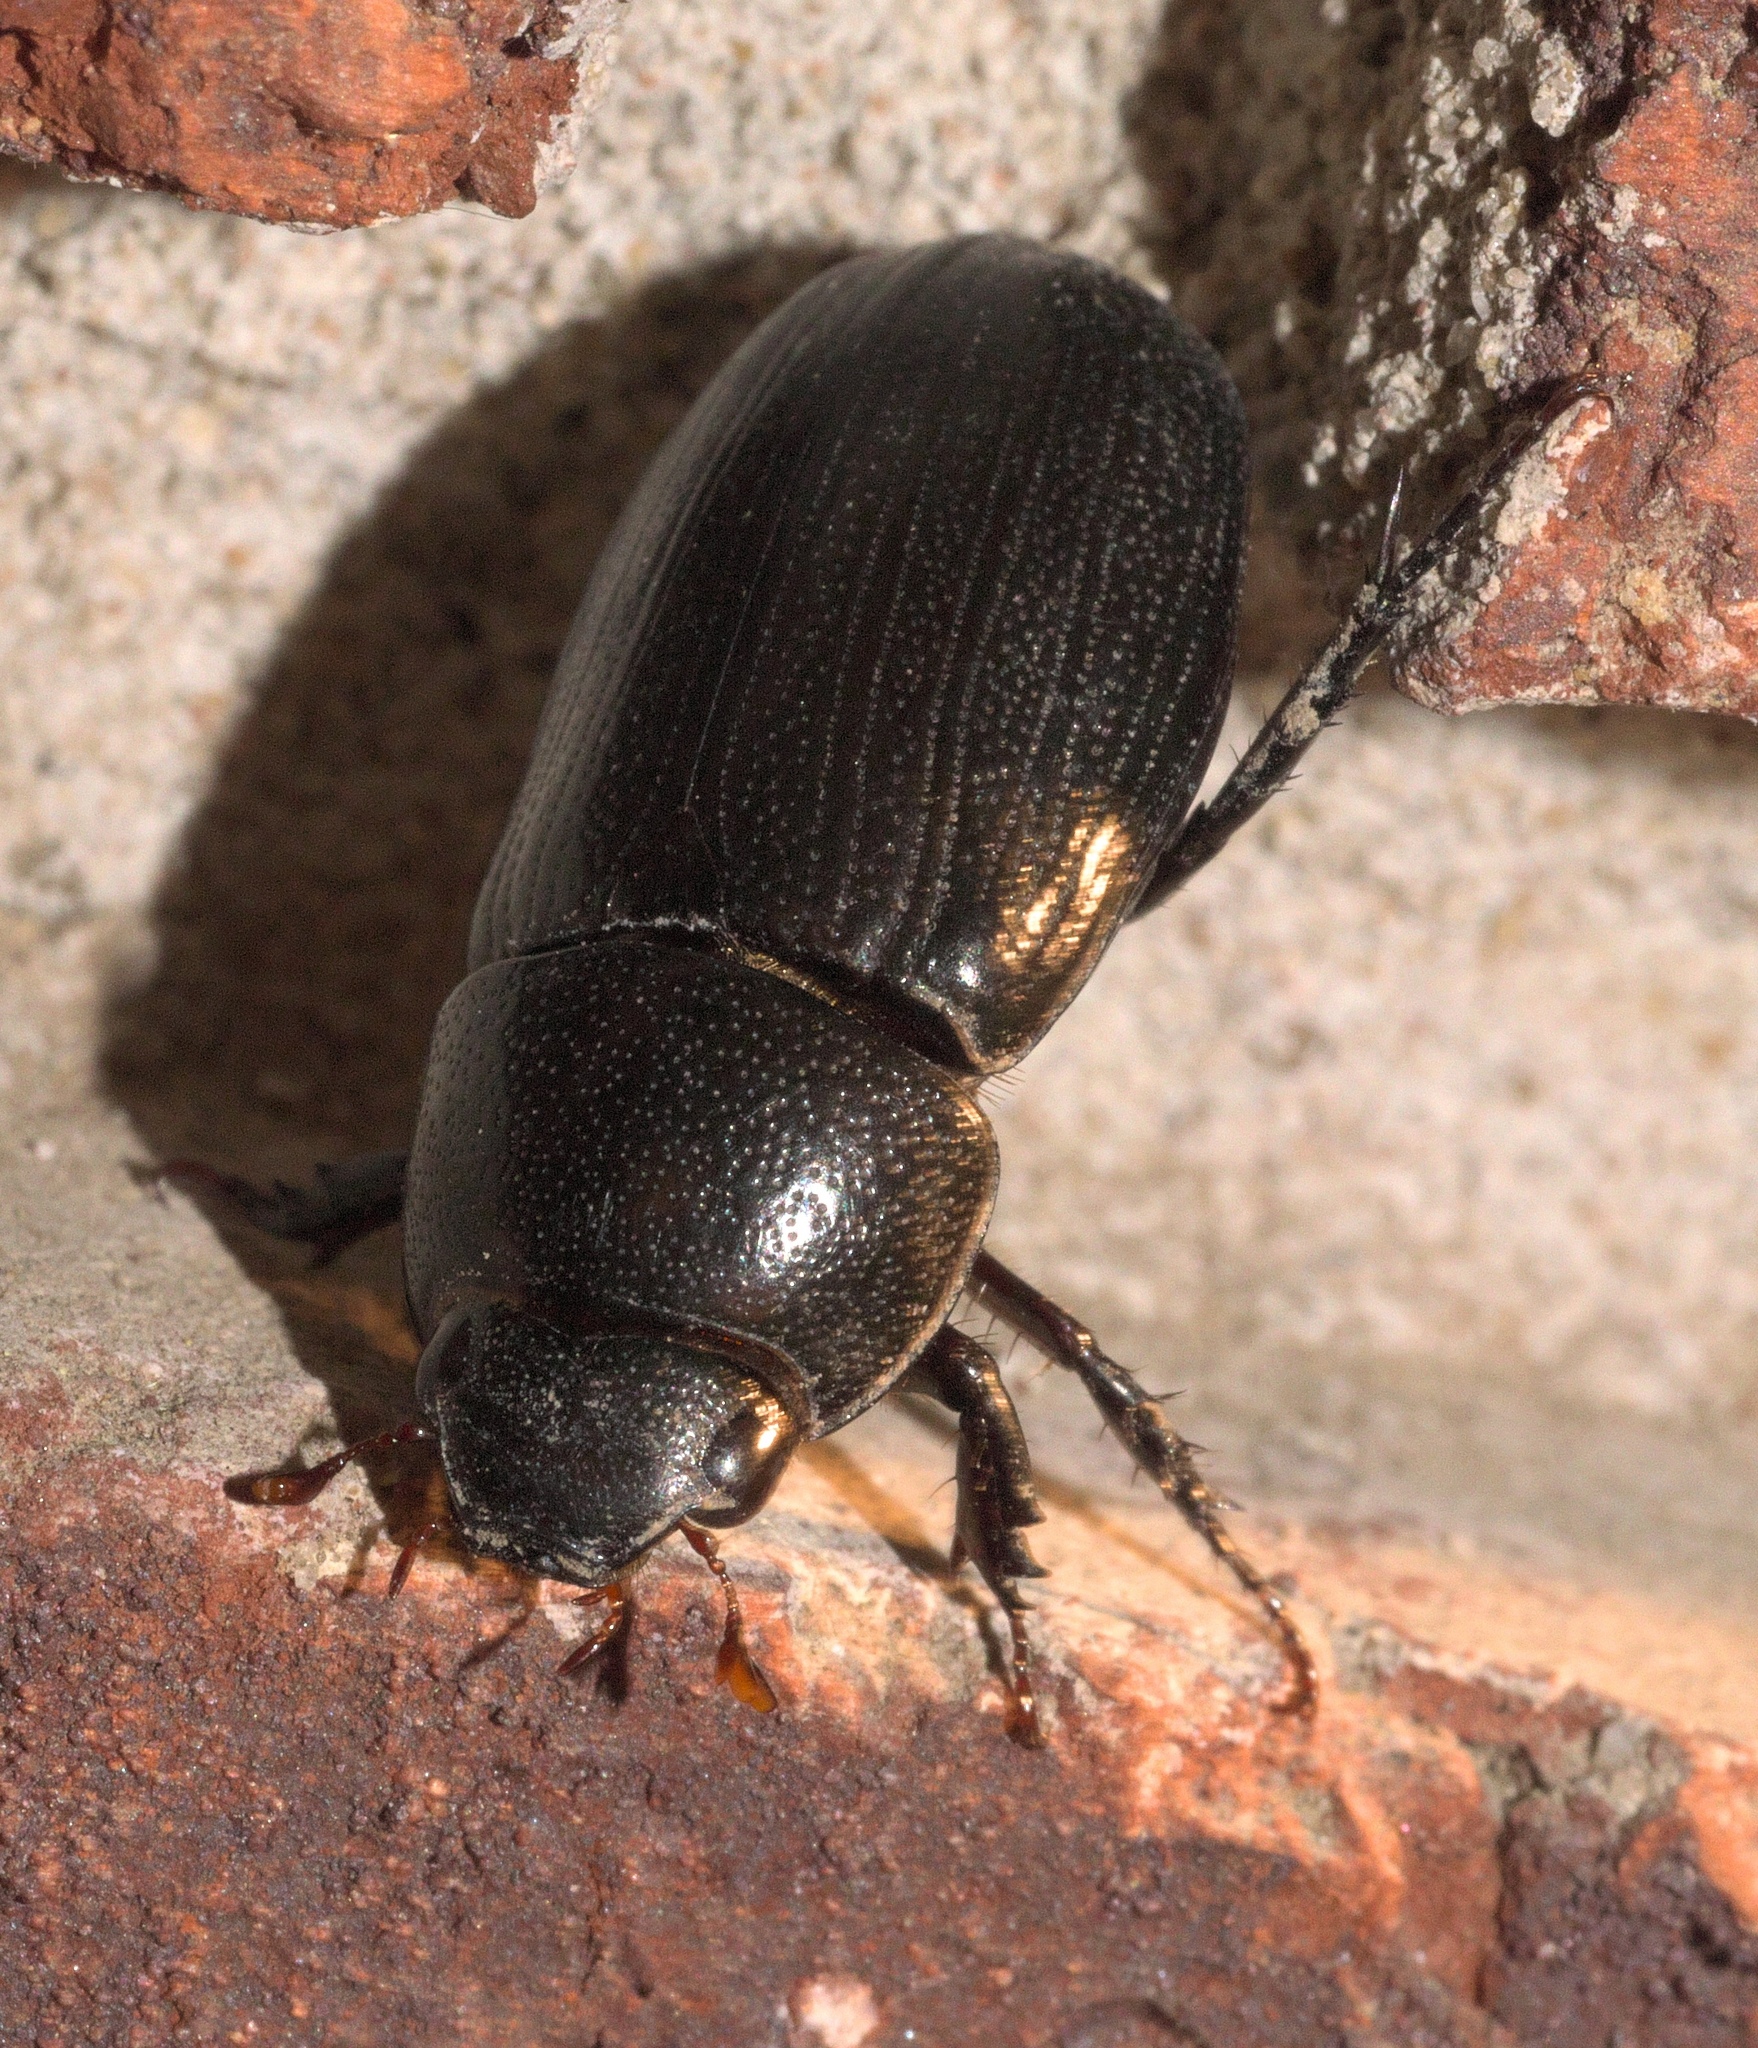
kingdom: Animalia
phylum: Arthropoda
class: Insecta
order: Coleoptera
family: Scarabaeidae
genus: Dyscinetus
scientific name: Dyscinetus morator
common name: Rice beetle
